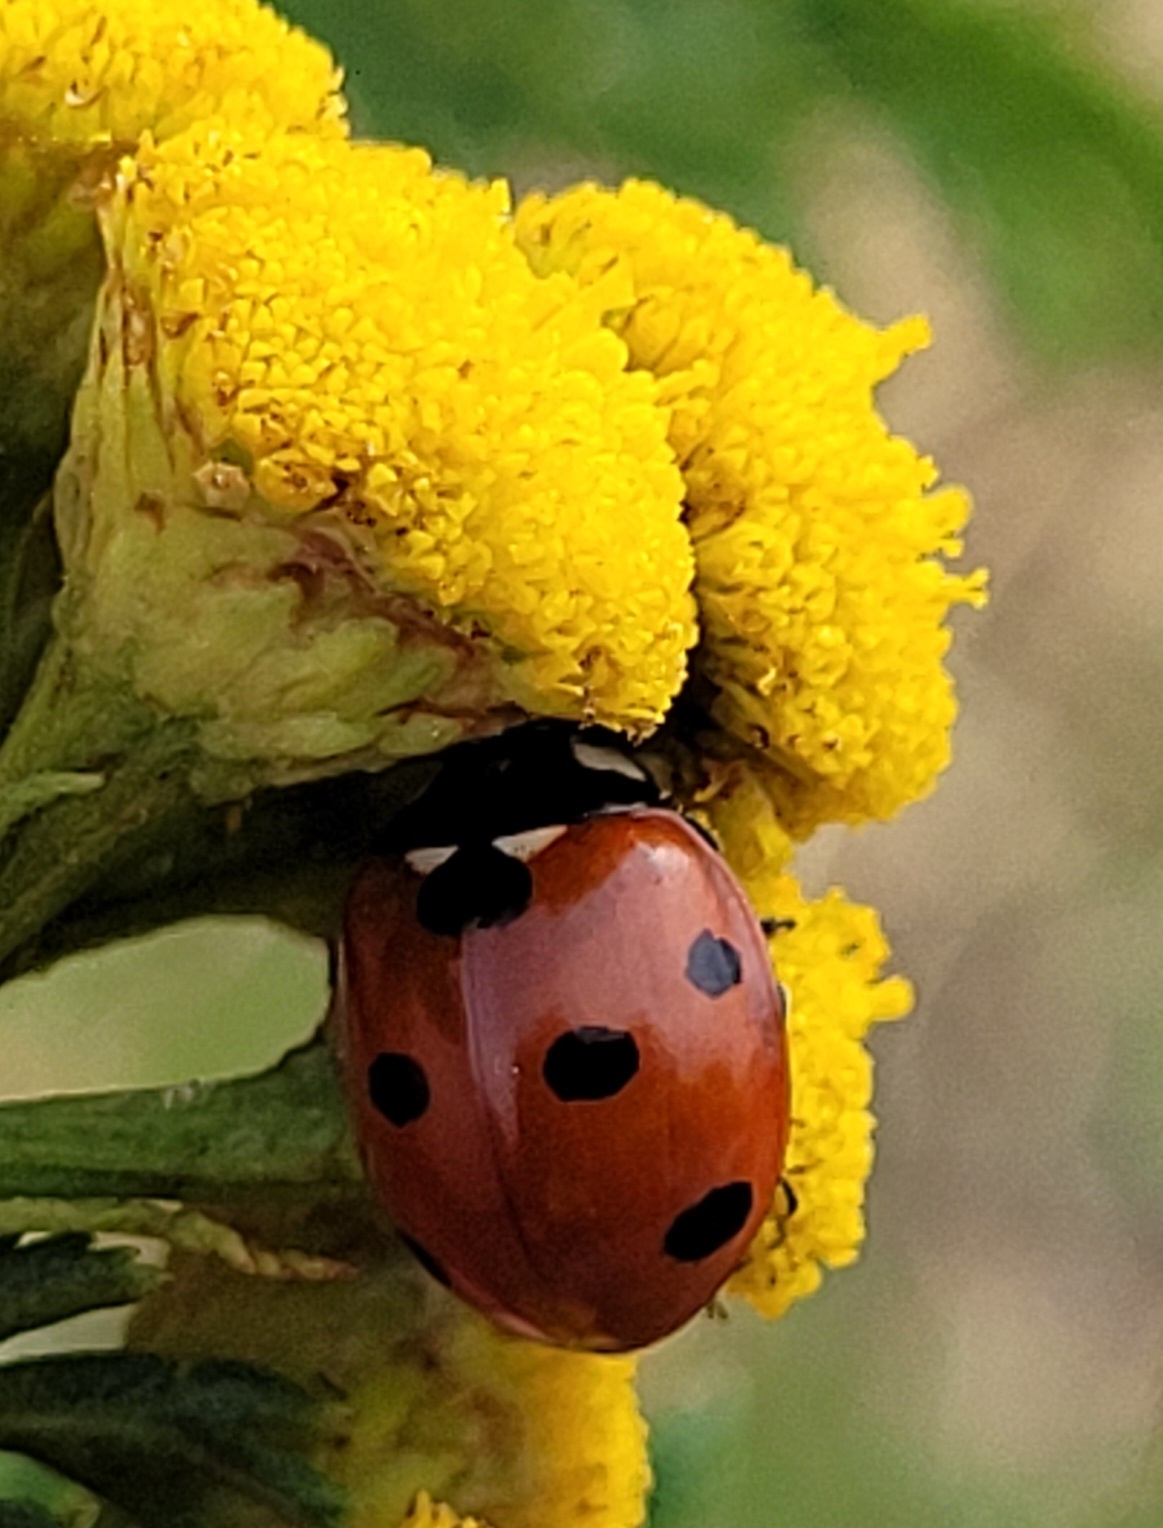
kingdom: Animalia
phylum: Arthropoda
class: Insecta
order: Coleoptera
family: Coccinellidae
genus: Coccinella
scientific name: Coccinella septempunctata
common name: Sevenspotted lady beetle
